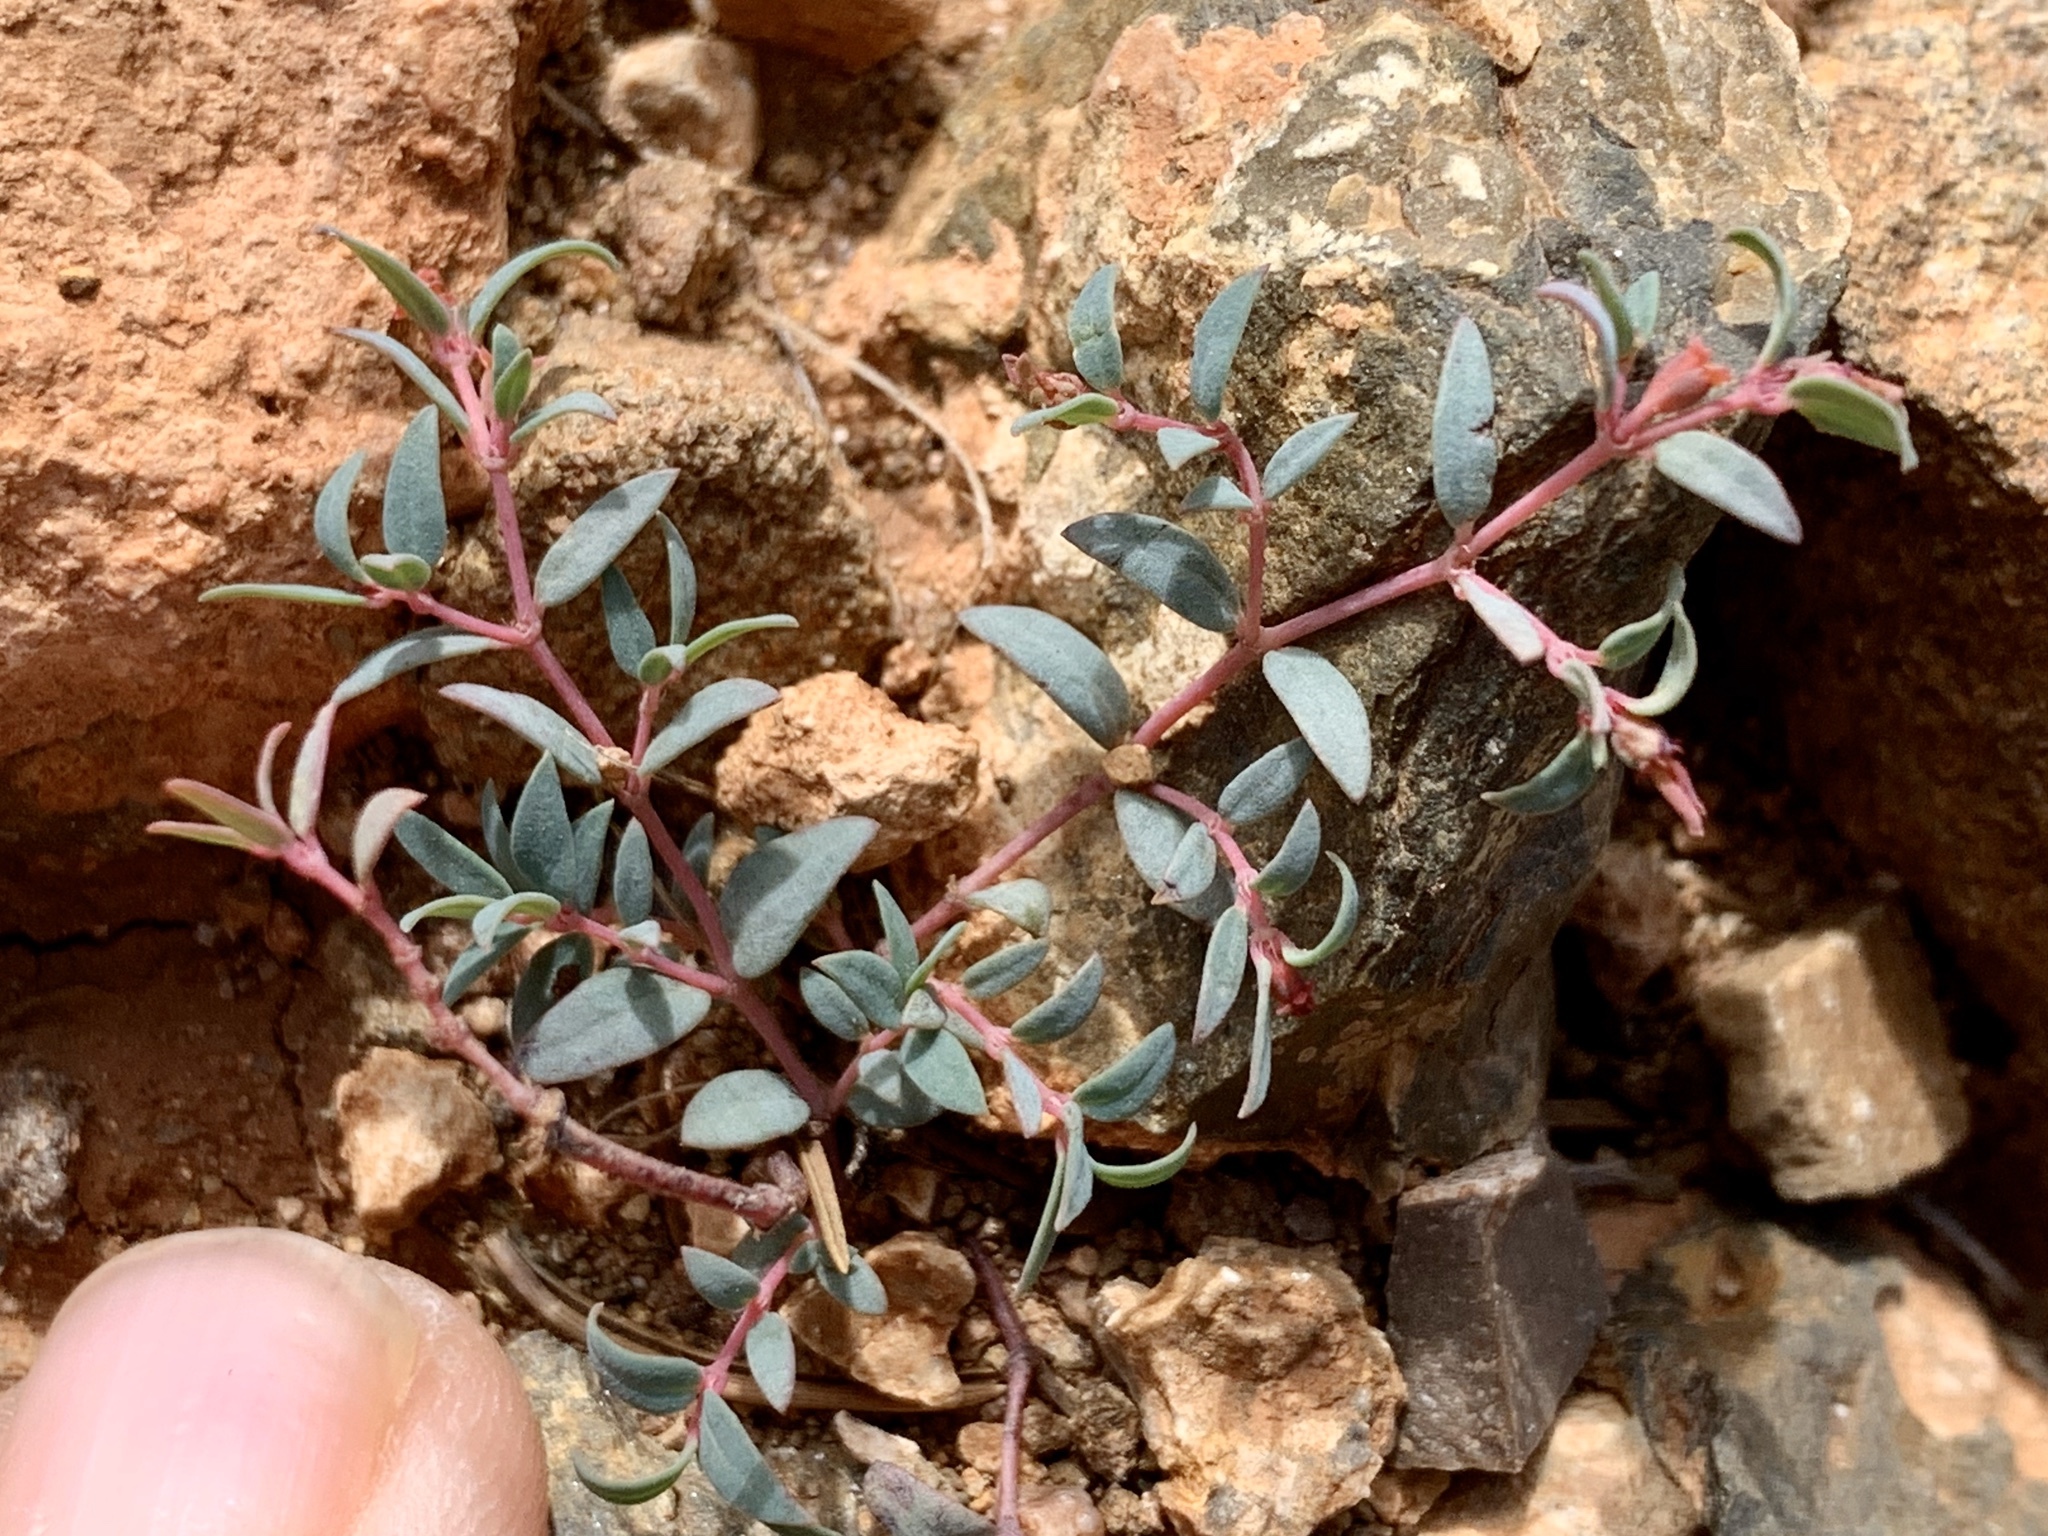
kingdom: Plantae
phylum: Tracheophyta
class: Magnoliopsida
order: Malpighiales
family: Euphorbiaceae
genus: Euphorbia
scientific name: Euphorbia chaetocalyx
